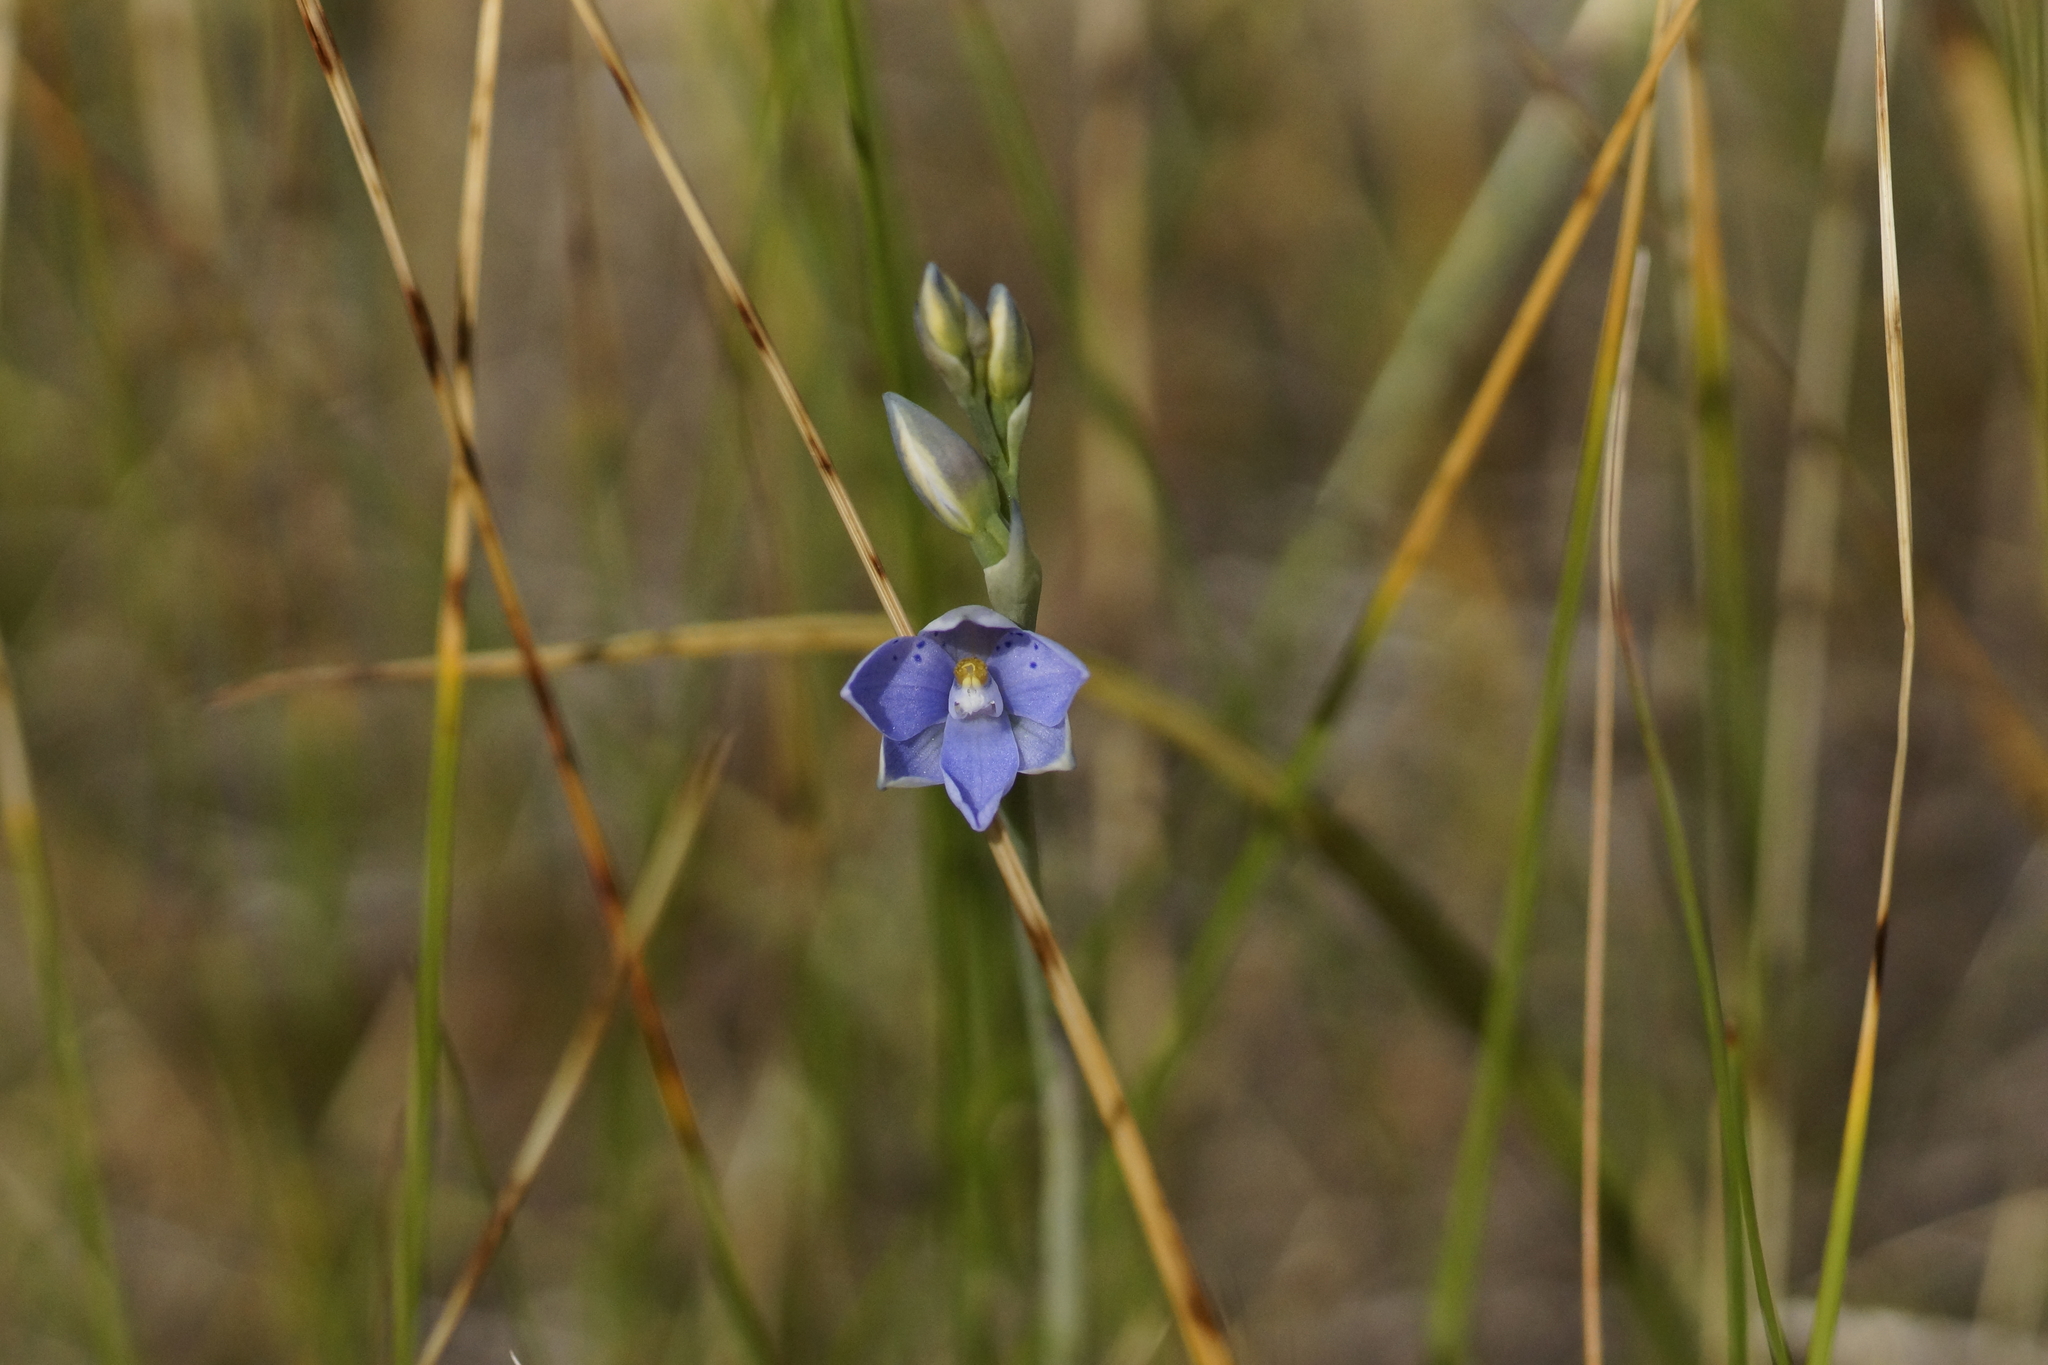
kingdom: Plantae
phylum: Tracheophyta
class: Liliopsida
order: Asparagales
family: Orchidaceae
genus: Thelymitra
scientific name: Thelymitra ixioides
